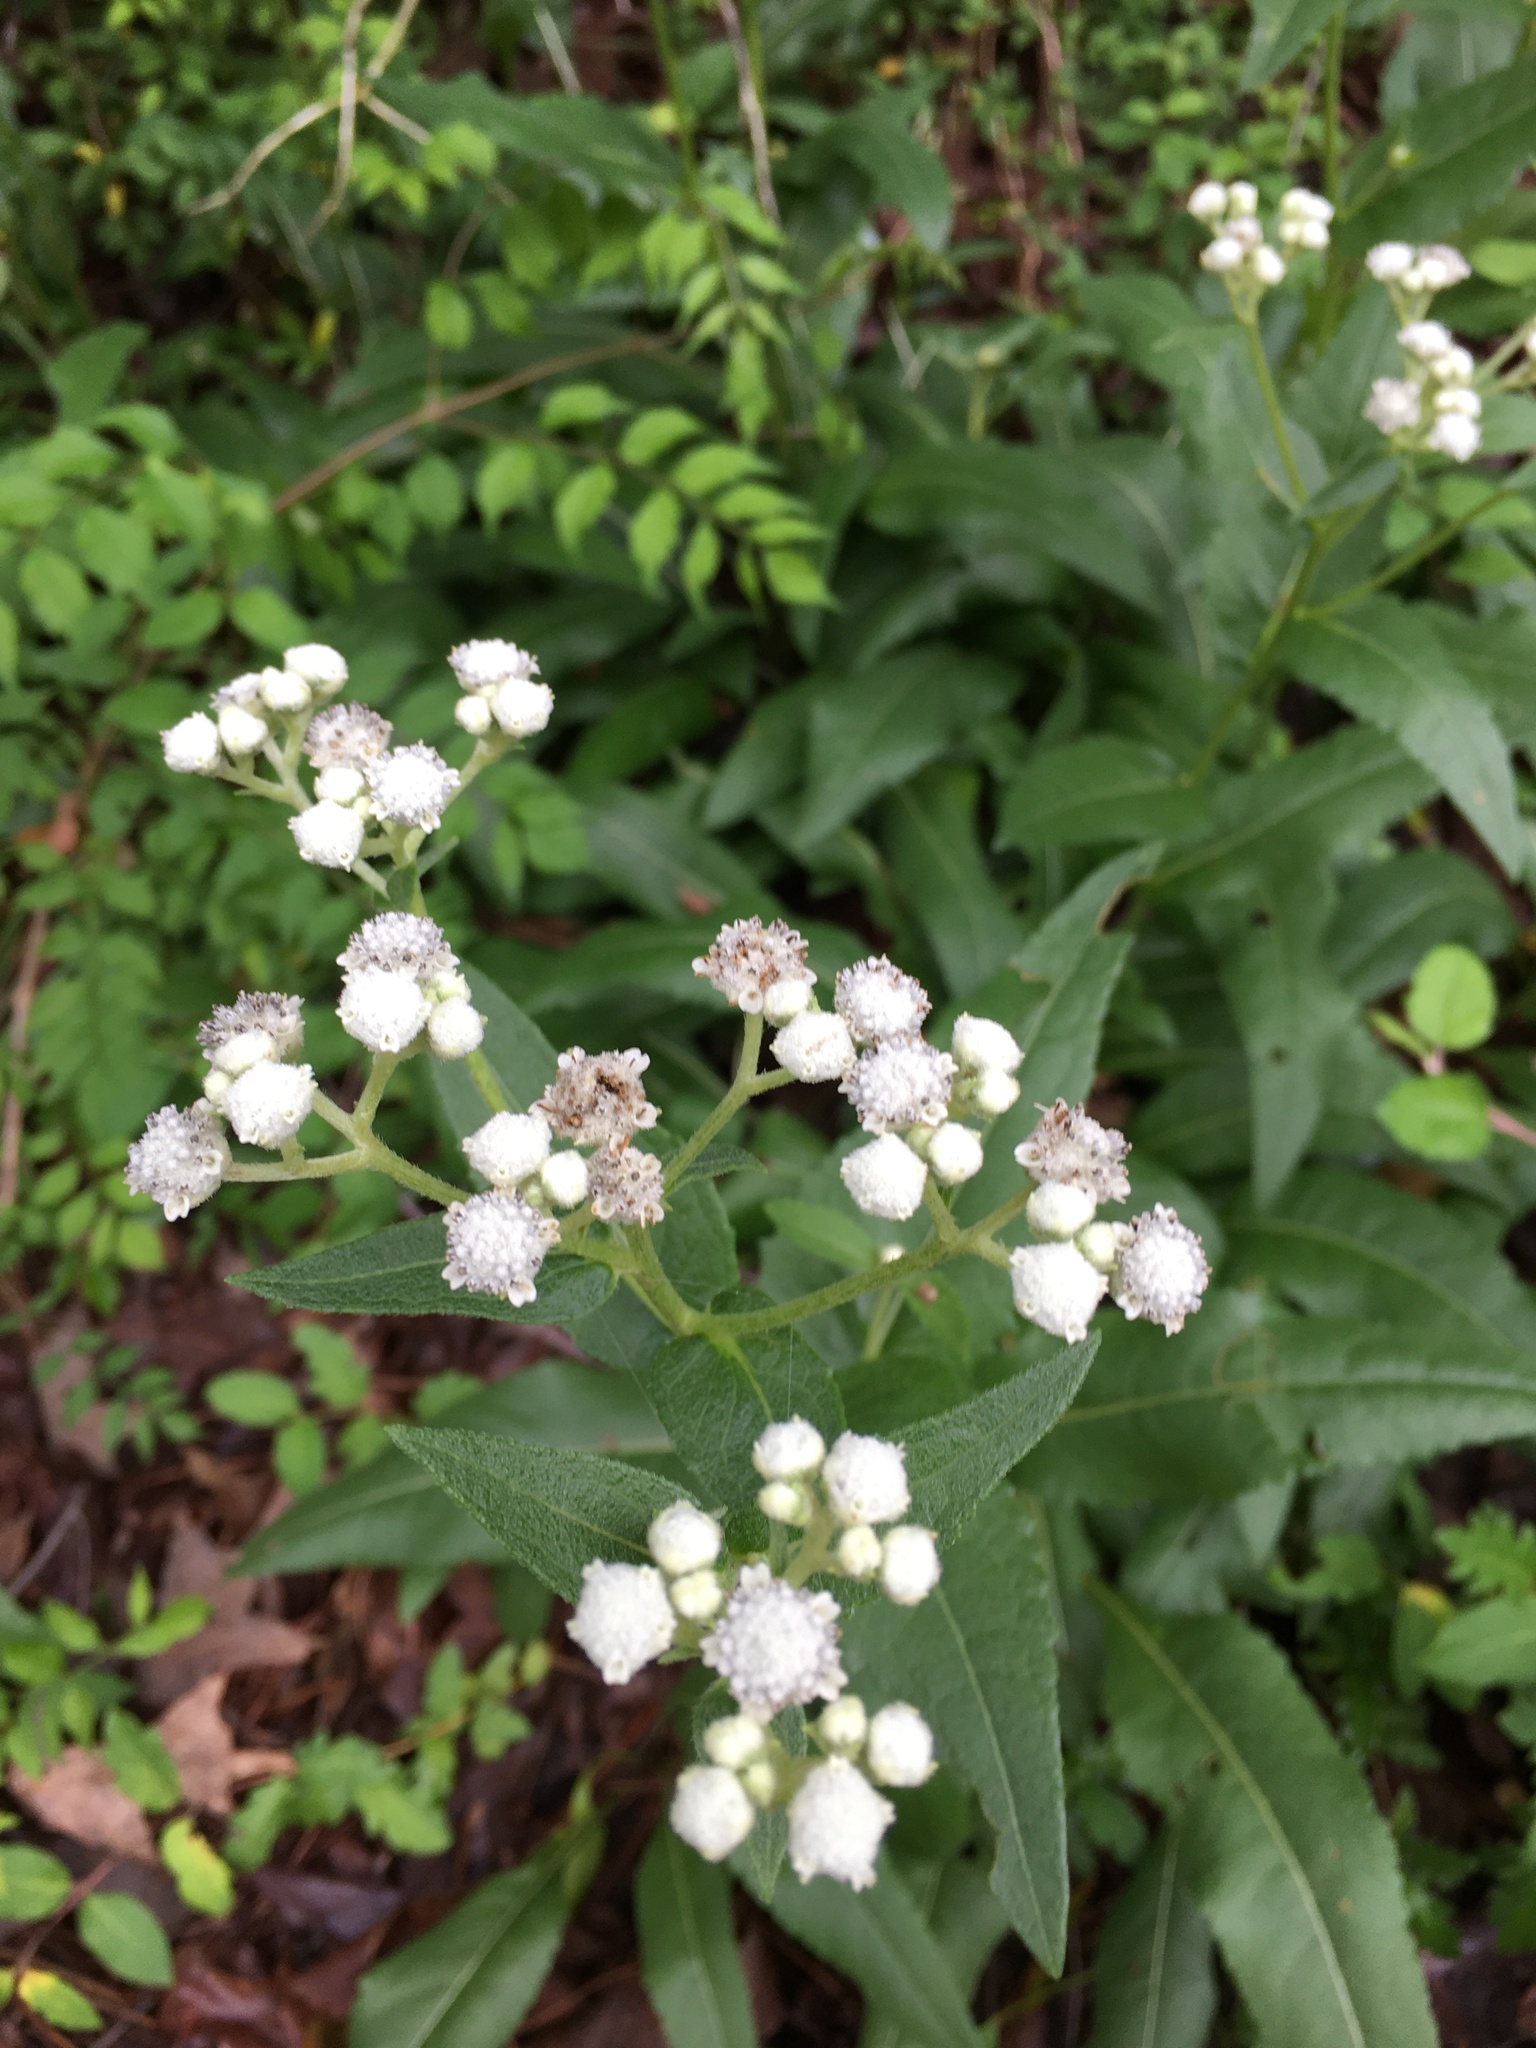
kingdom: Plantae
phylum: Tracheophyta
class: Magnoliopsida
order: Asterales
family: Asteraceae
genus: Parthenium
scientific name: Parthenium integrifolium
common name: American feverfew
